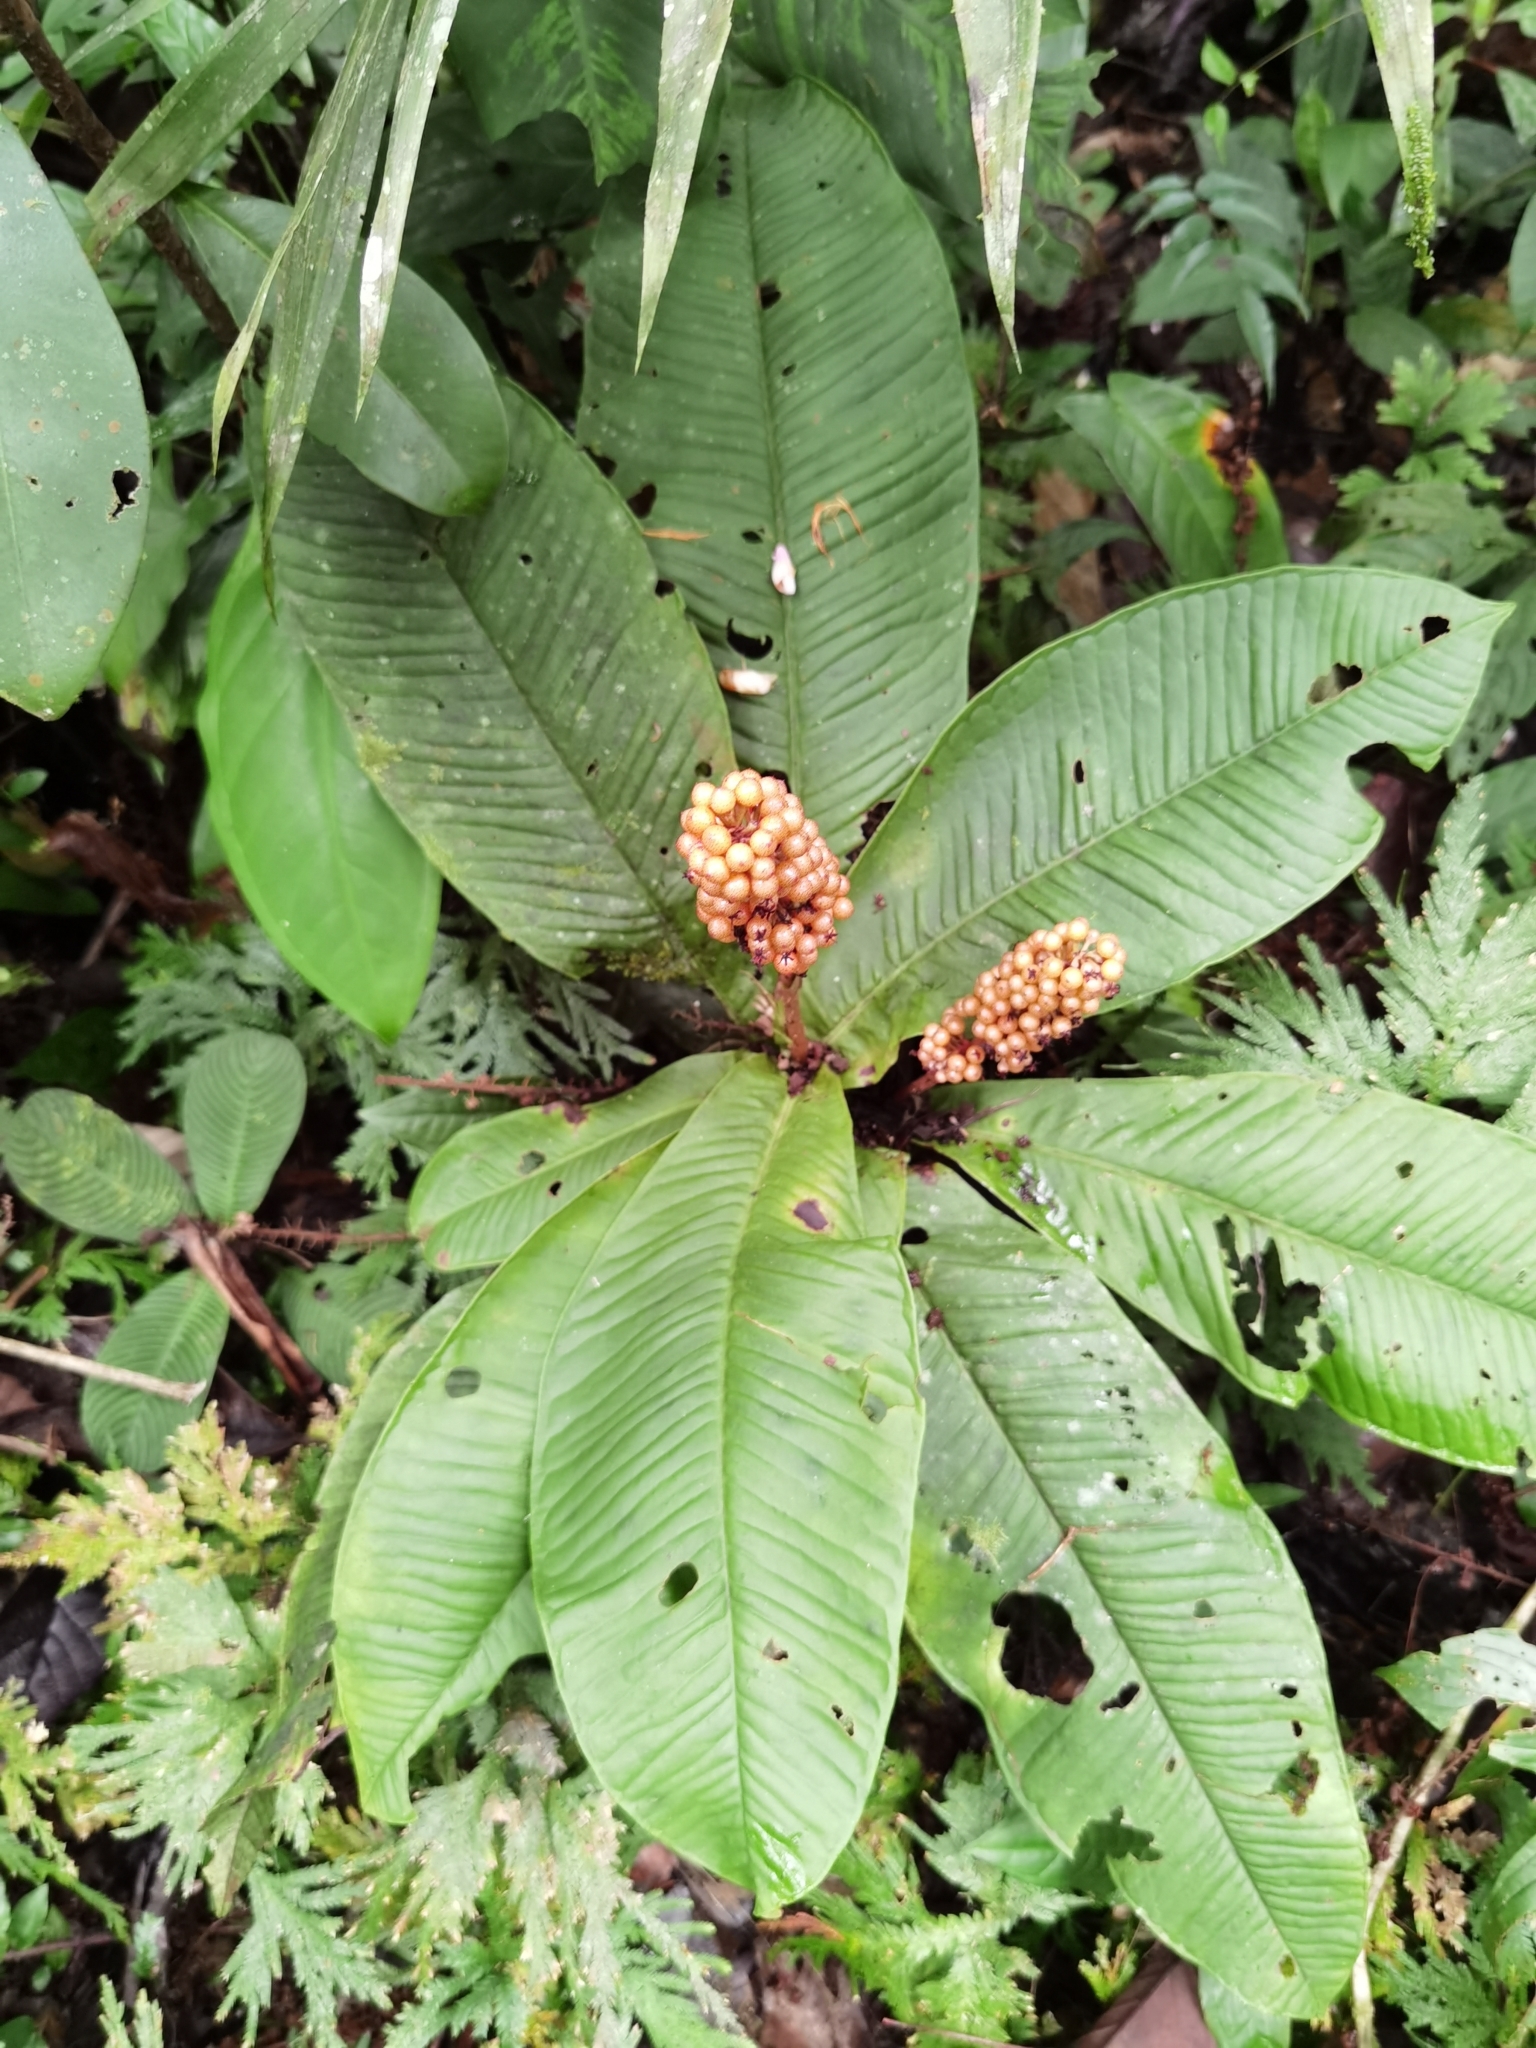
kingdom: Plantae
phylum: Tracheophyta
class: Magnoliopsida
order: Ericales
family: Primulaceae
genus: Ardisia
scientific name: Ardisia wedelii
